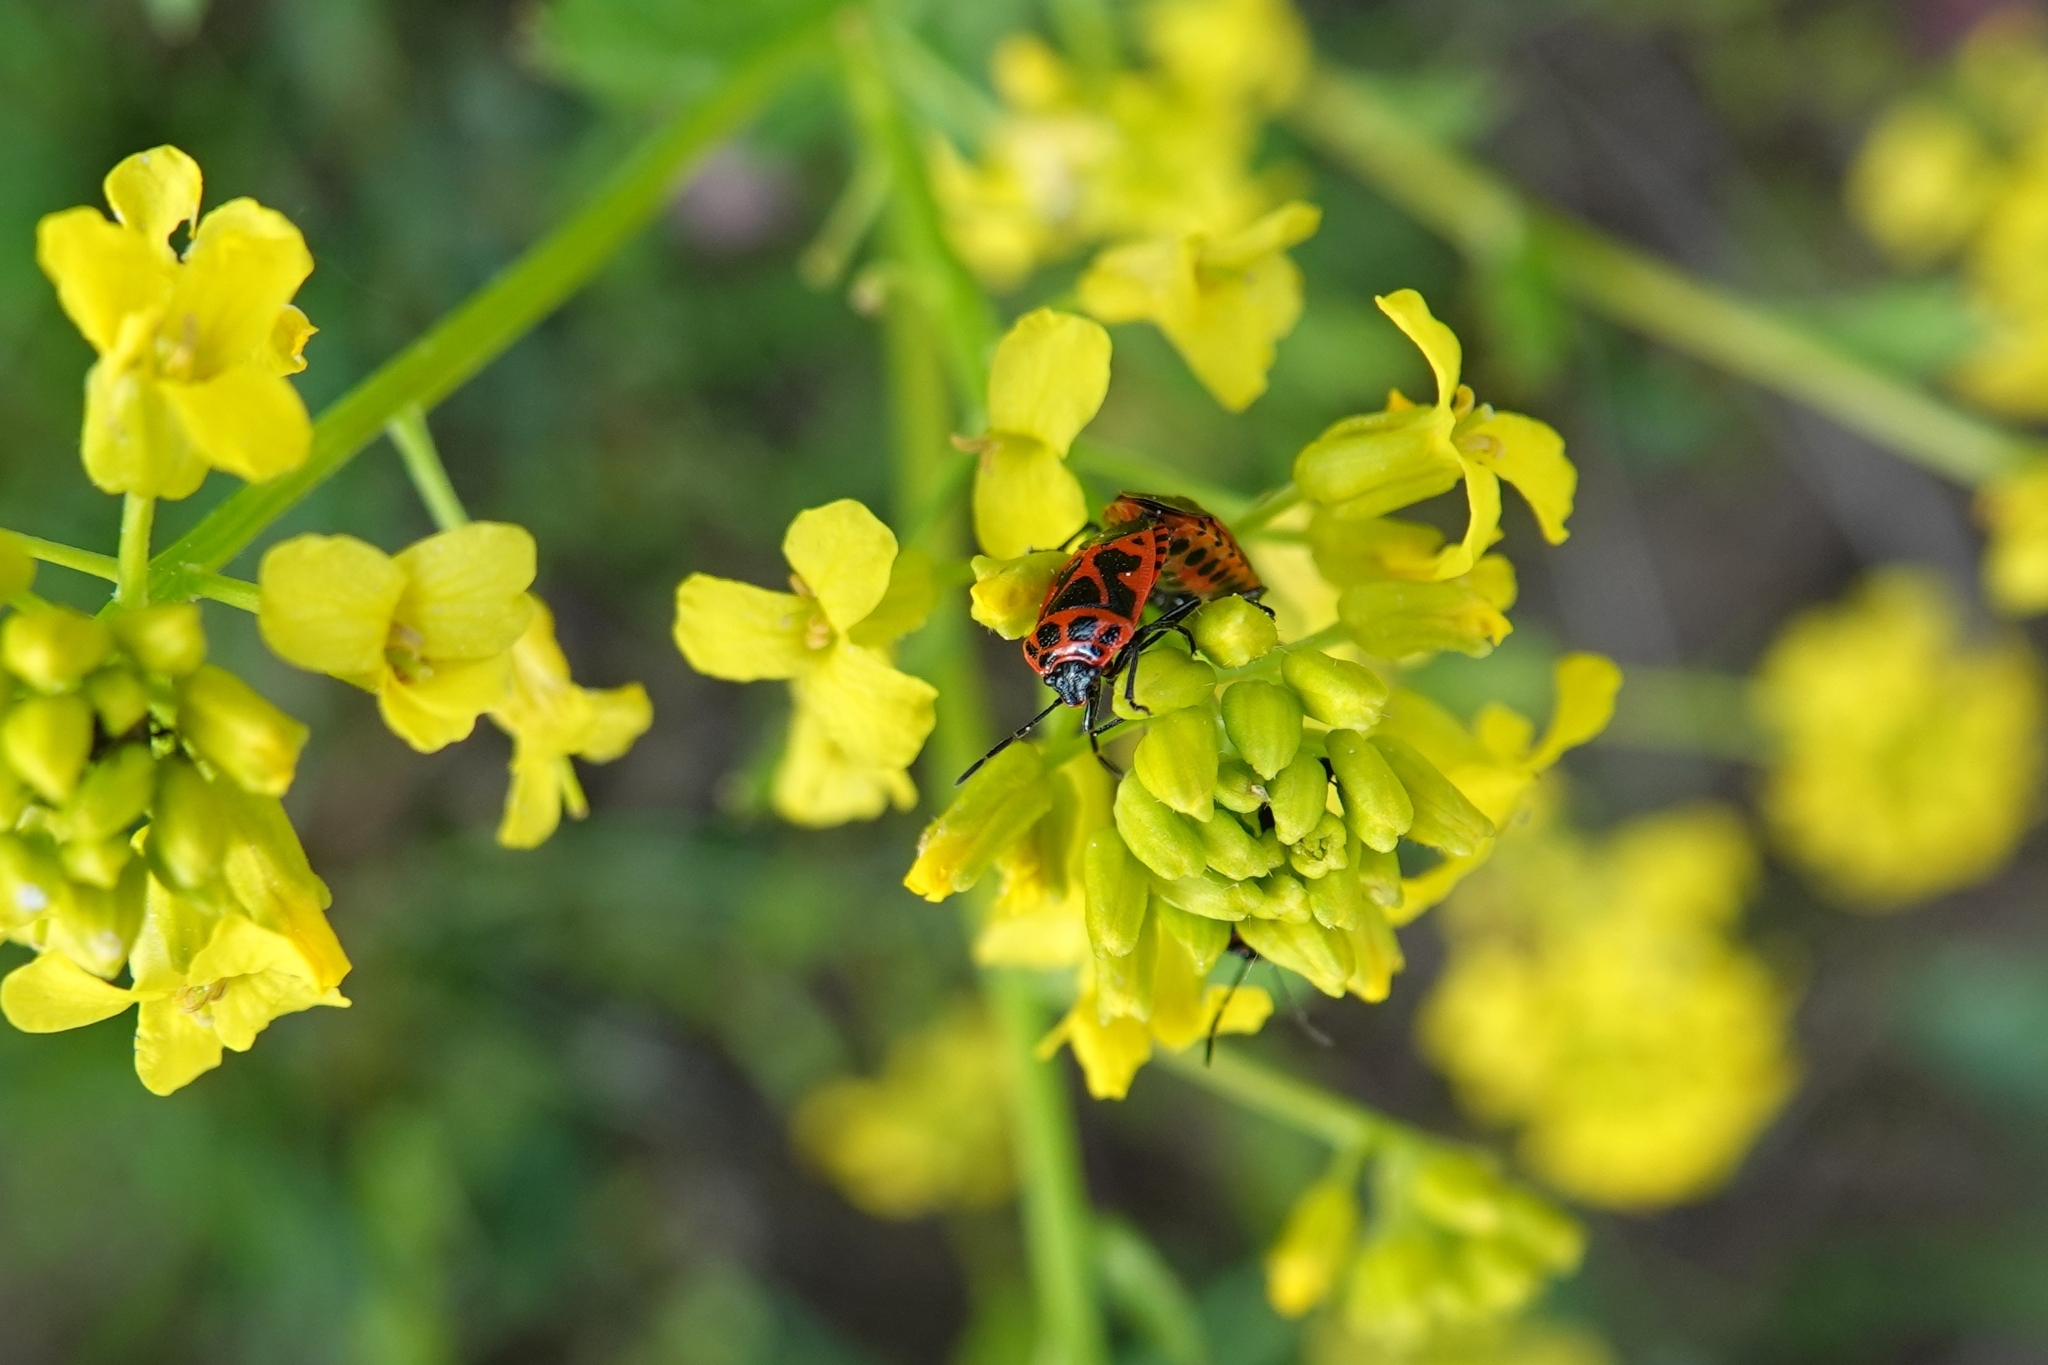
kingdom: Animalia
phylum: Arthropoda
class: Insecta
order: Hemiptera
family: Pentatomidae
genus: Eurydema
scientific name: Eurydema dominulus
